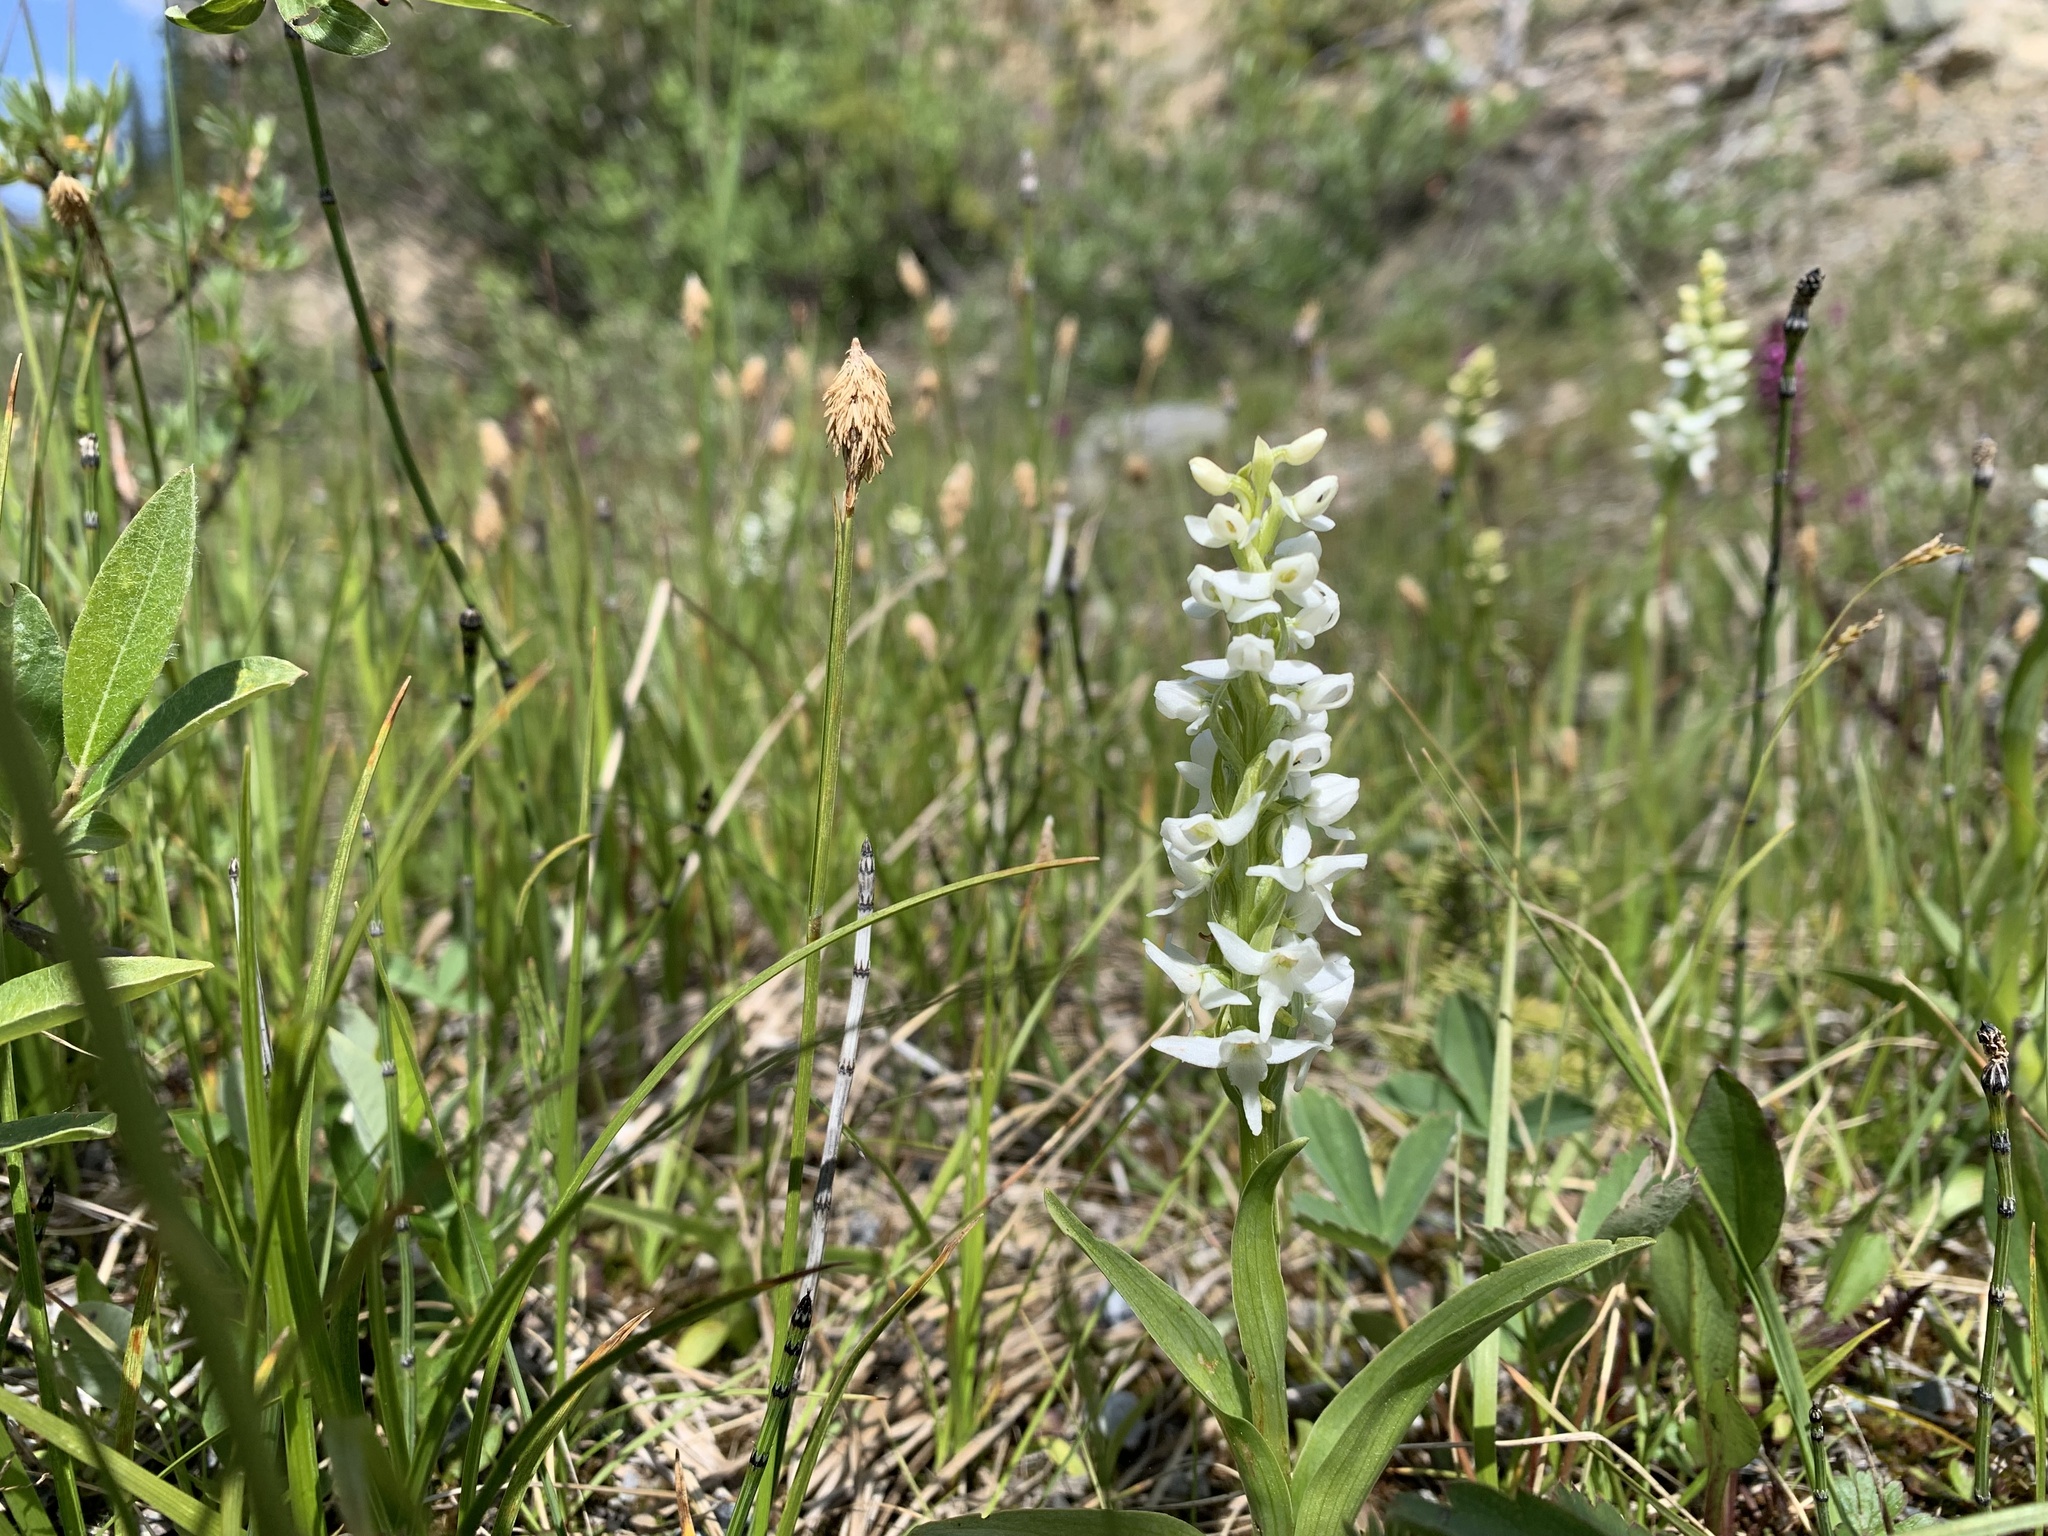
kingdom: Plantae
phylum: Tracheophyta
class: Liliopsida
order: Asparagales
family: Orchidaceae
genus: Platanthera
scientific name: Platanthera dilatata
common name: Bog candles
